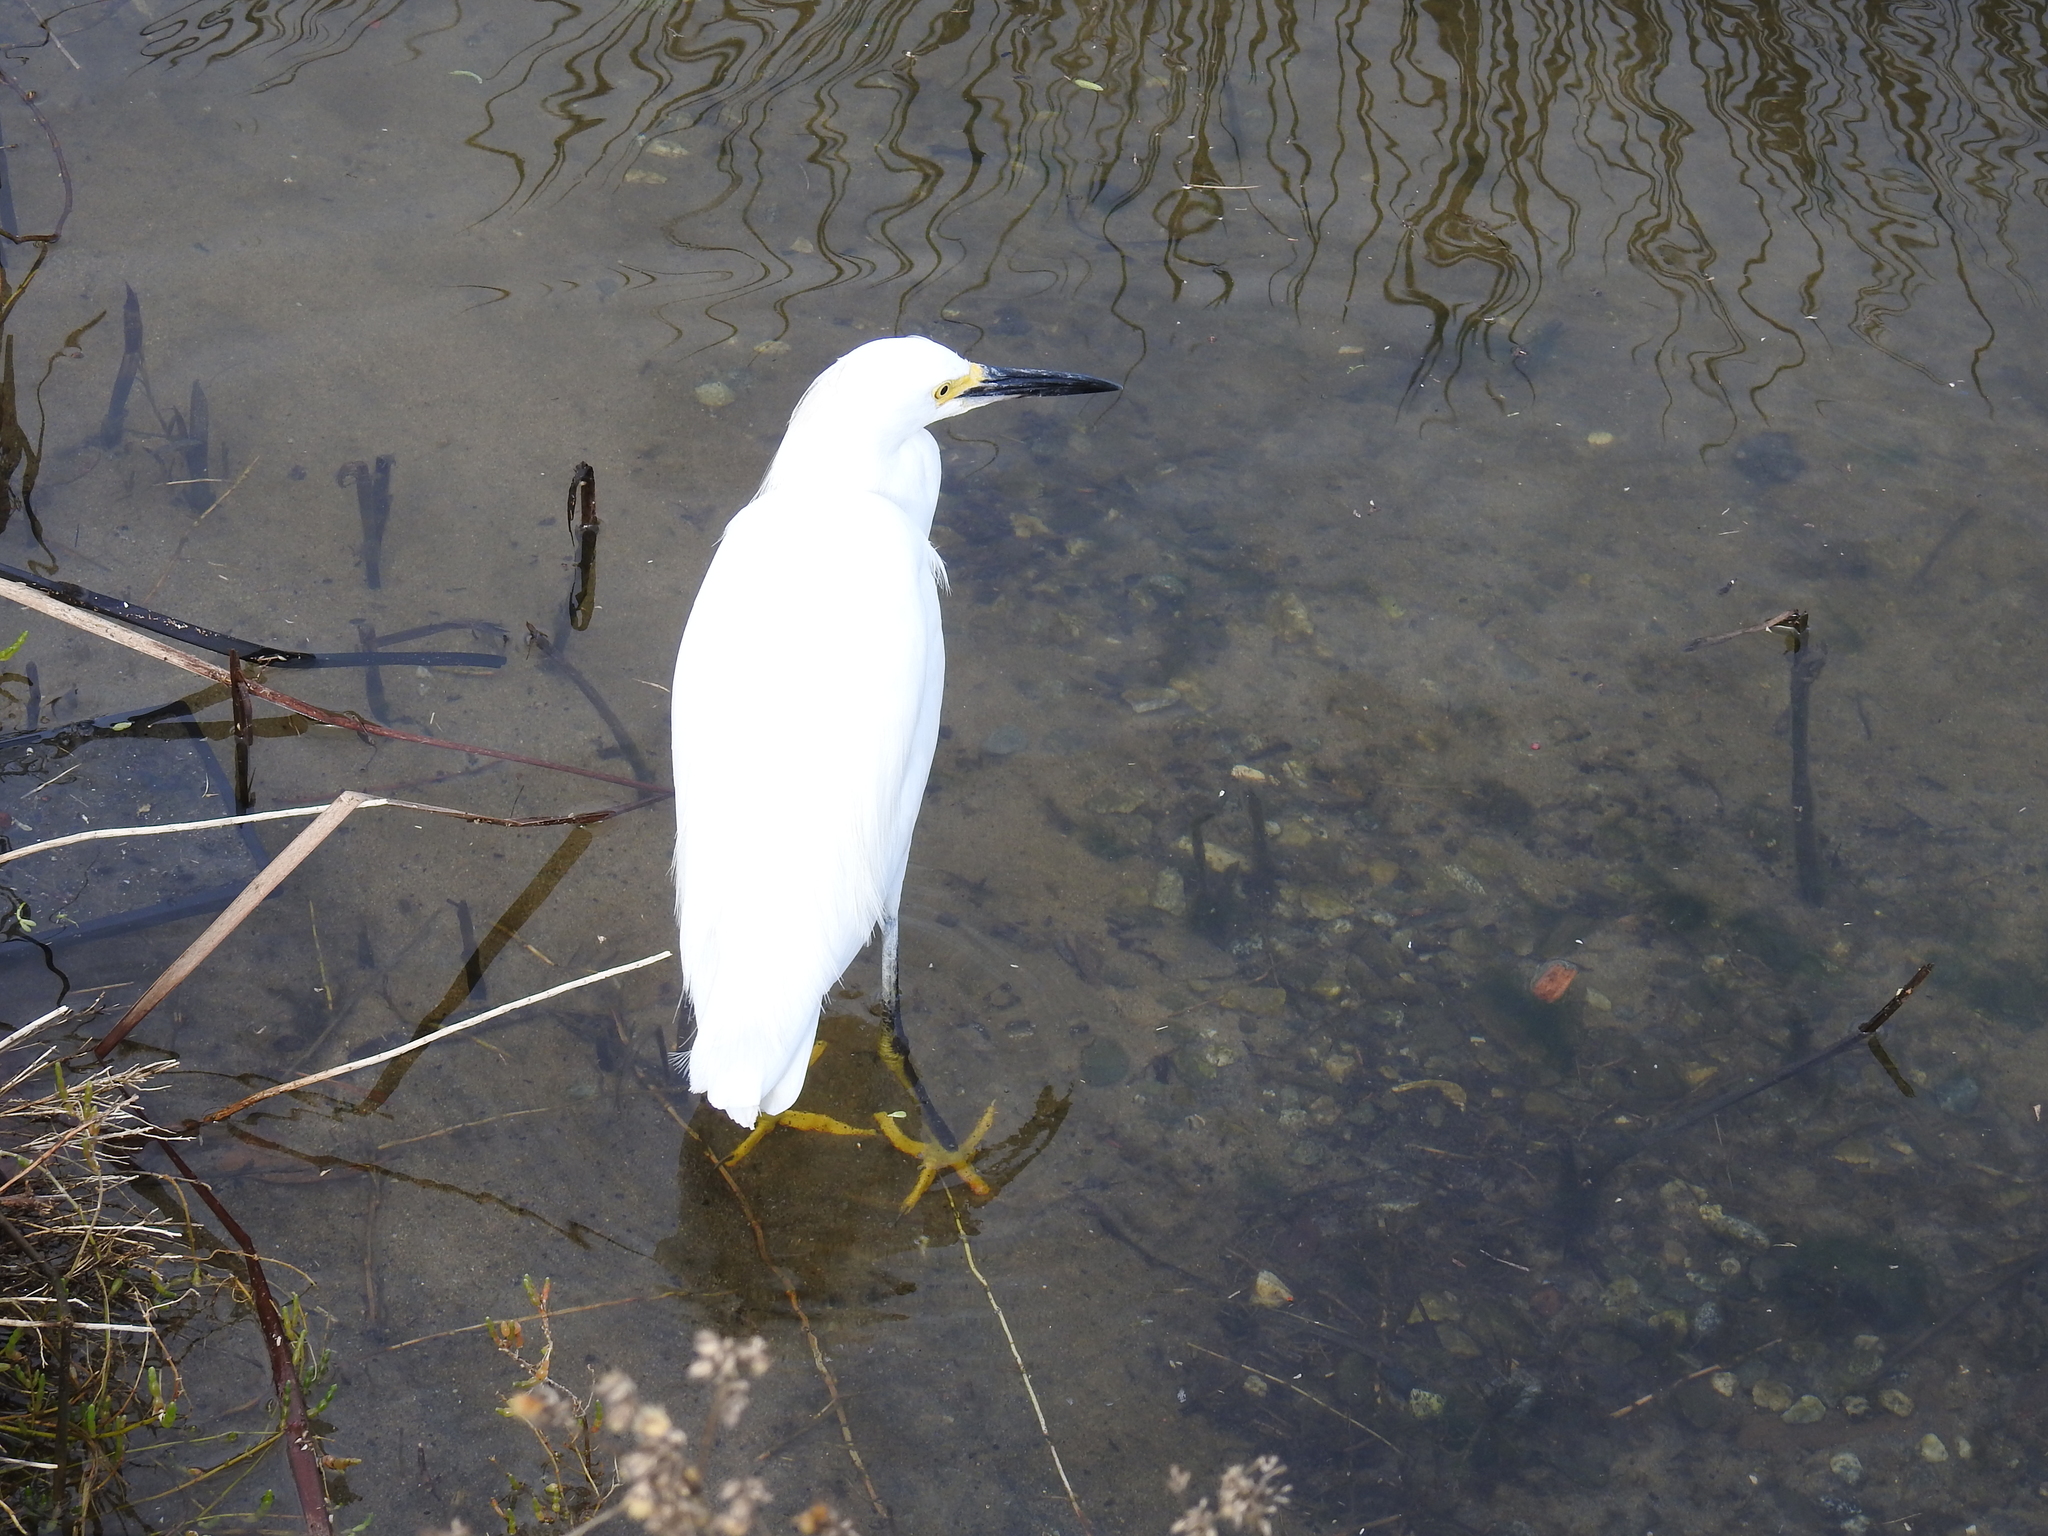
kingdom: Animalia
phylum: Chordata
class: Aves
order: Pelecaniformes
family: Ardeidae
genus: Egretta
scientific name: Egretta thula
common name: Snowy egret
